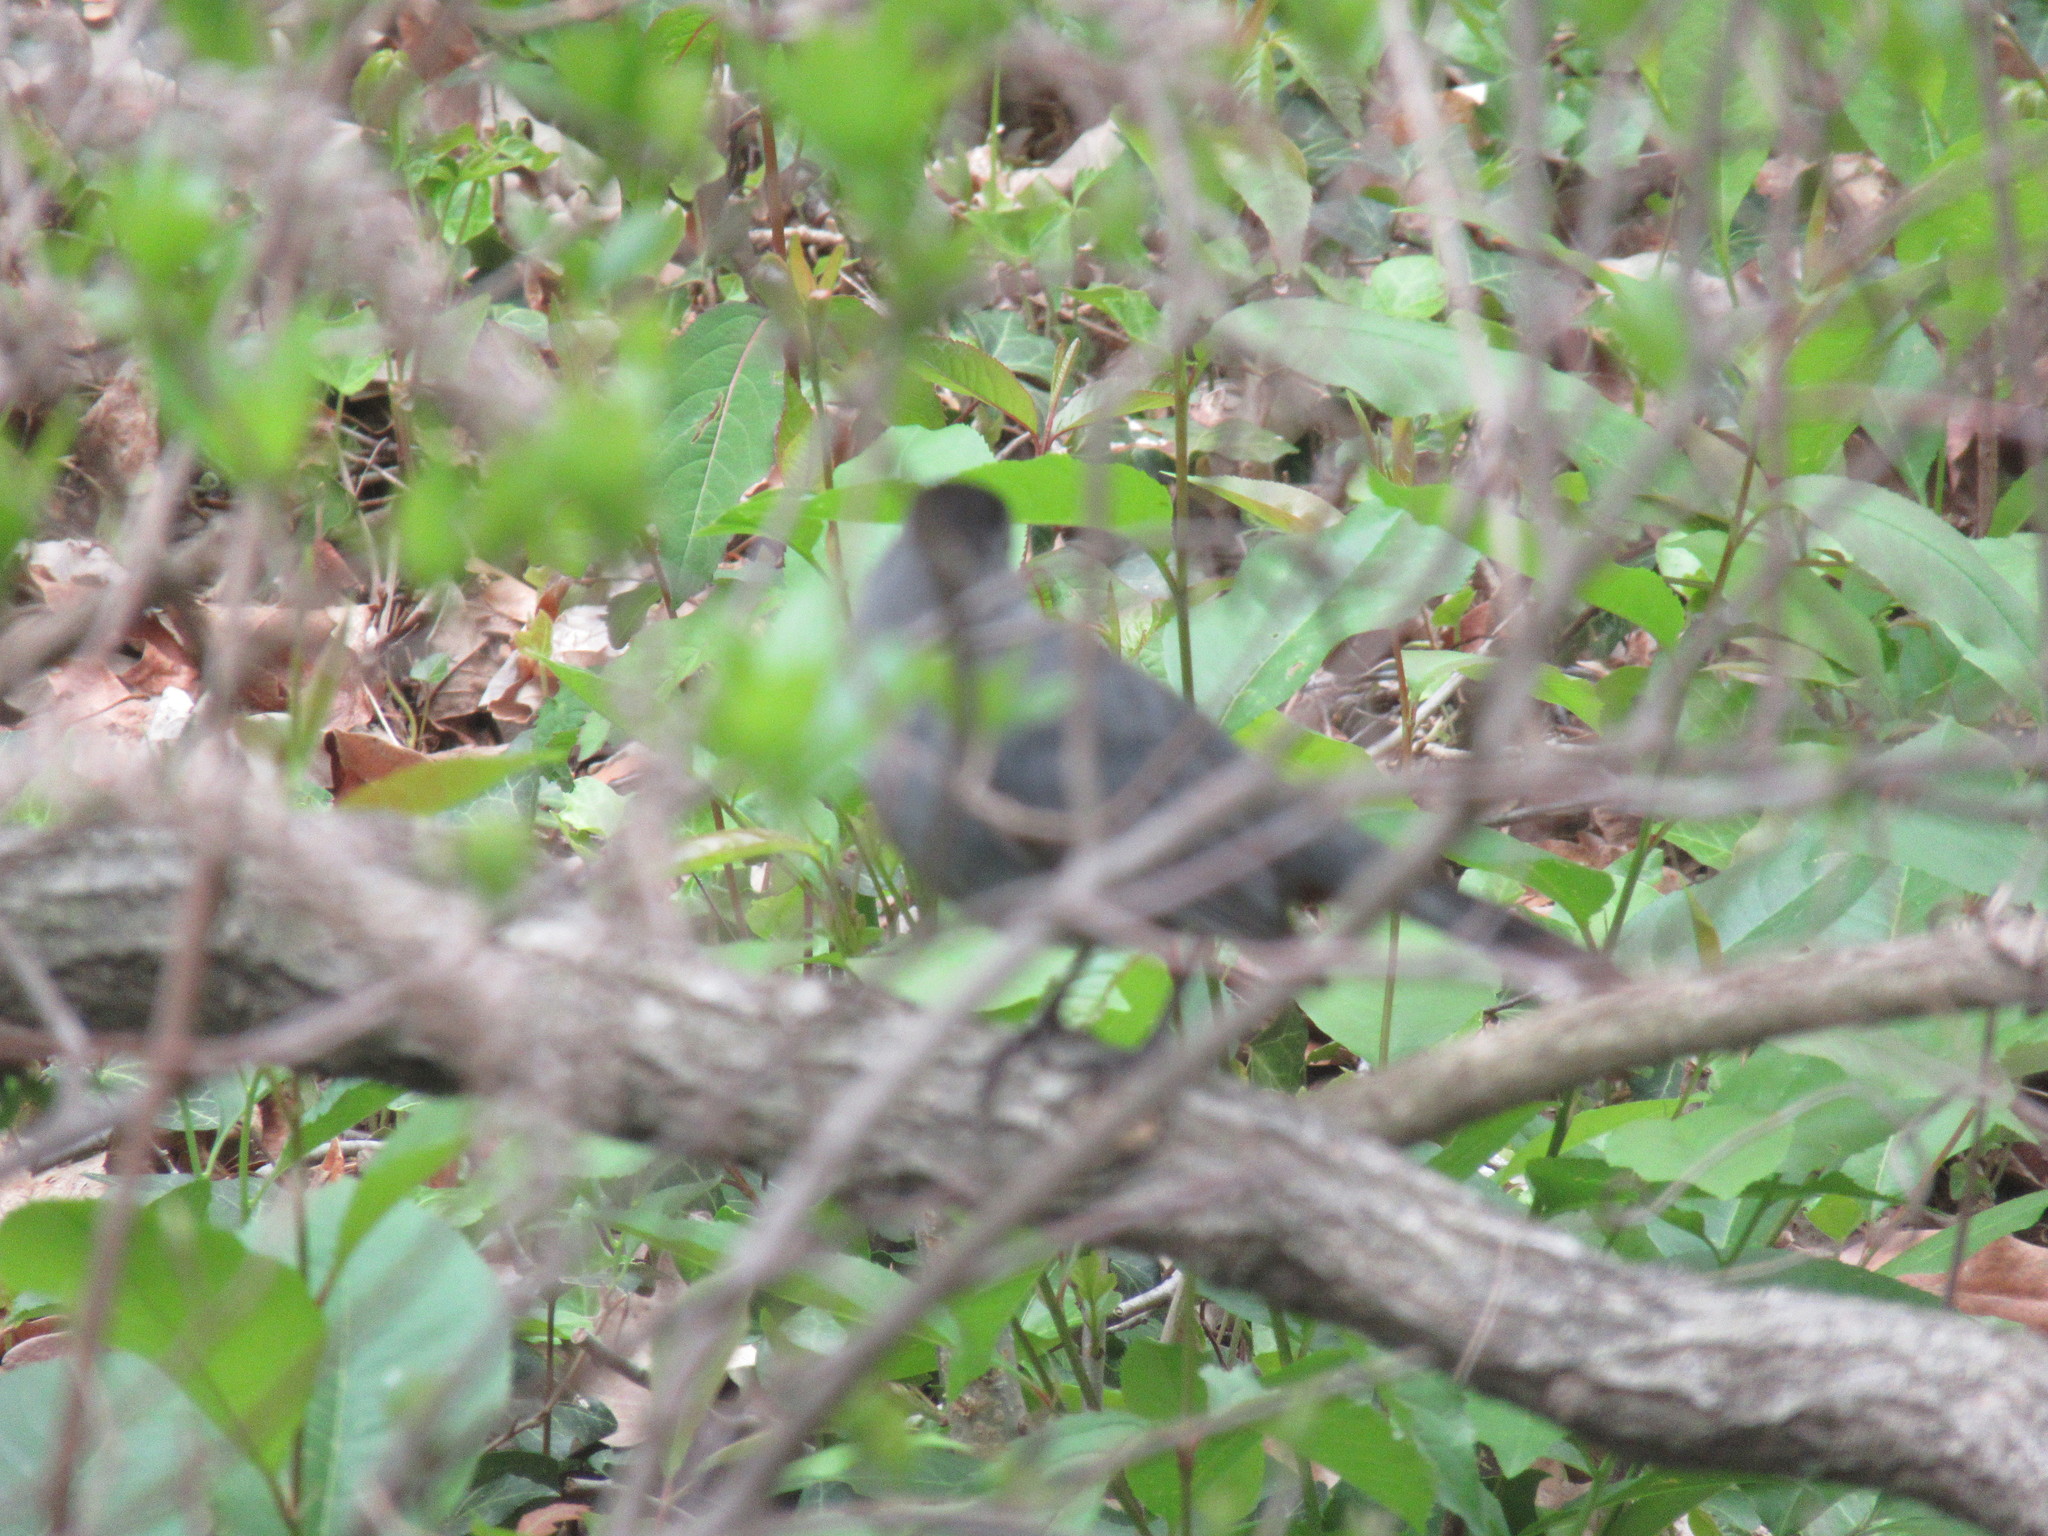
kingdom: Animalia
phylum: Chordata
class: Aves
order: Passeriformes
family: Mimidae
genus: Dumetella
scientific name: Dumetella carolinensis
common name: Gray catbird
